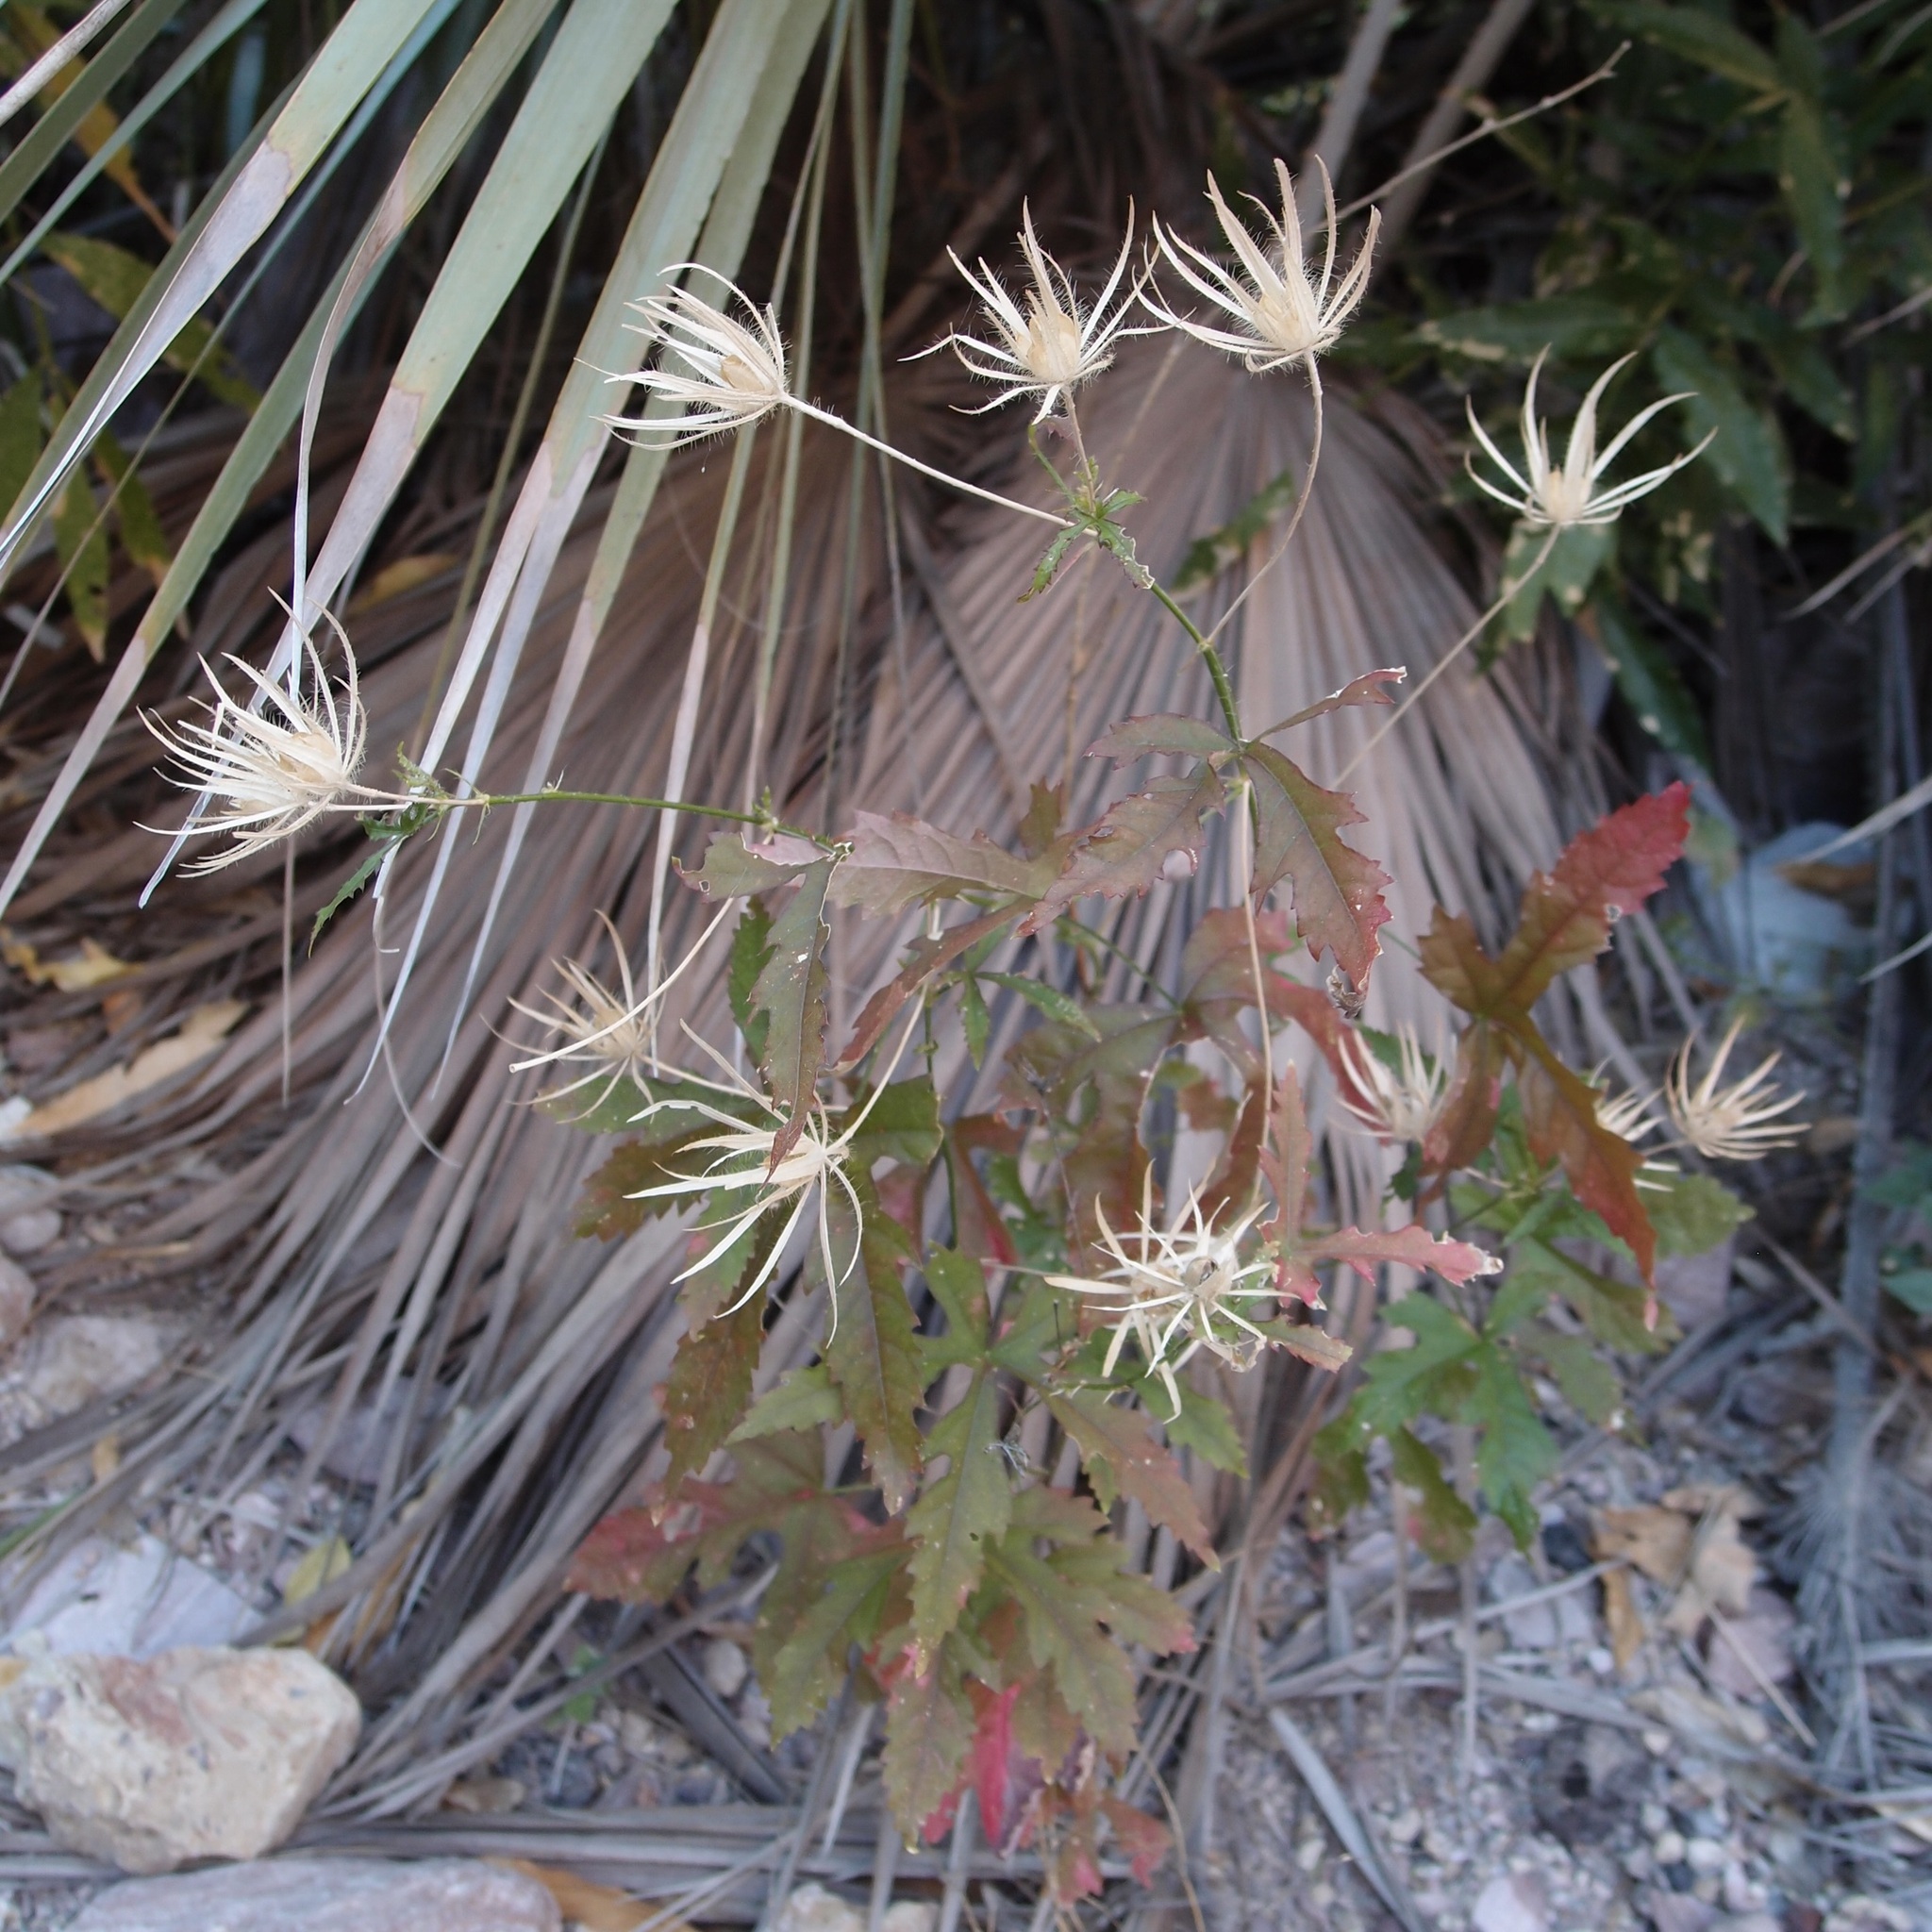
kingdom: Plantae
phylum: Tracheophyta
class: Magnoliopsida
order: Malvales
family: Malvaceae
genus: Hibiscus
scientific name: Hibiscus biseptus
